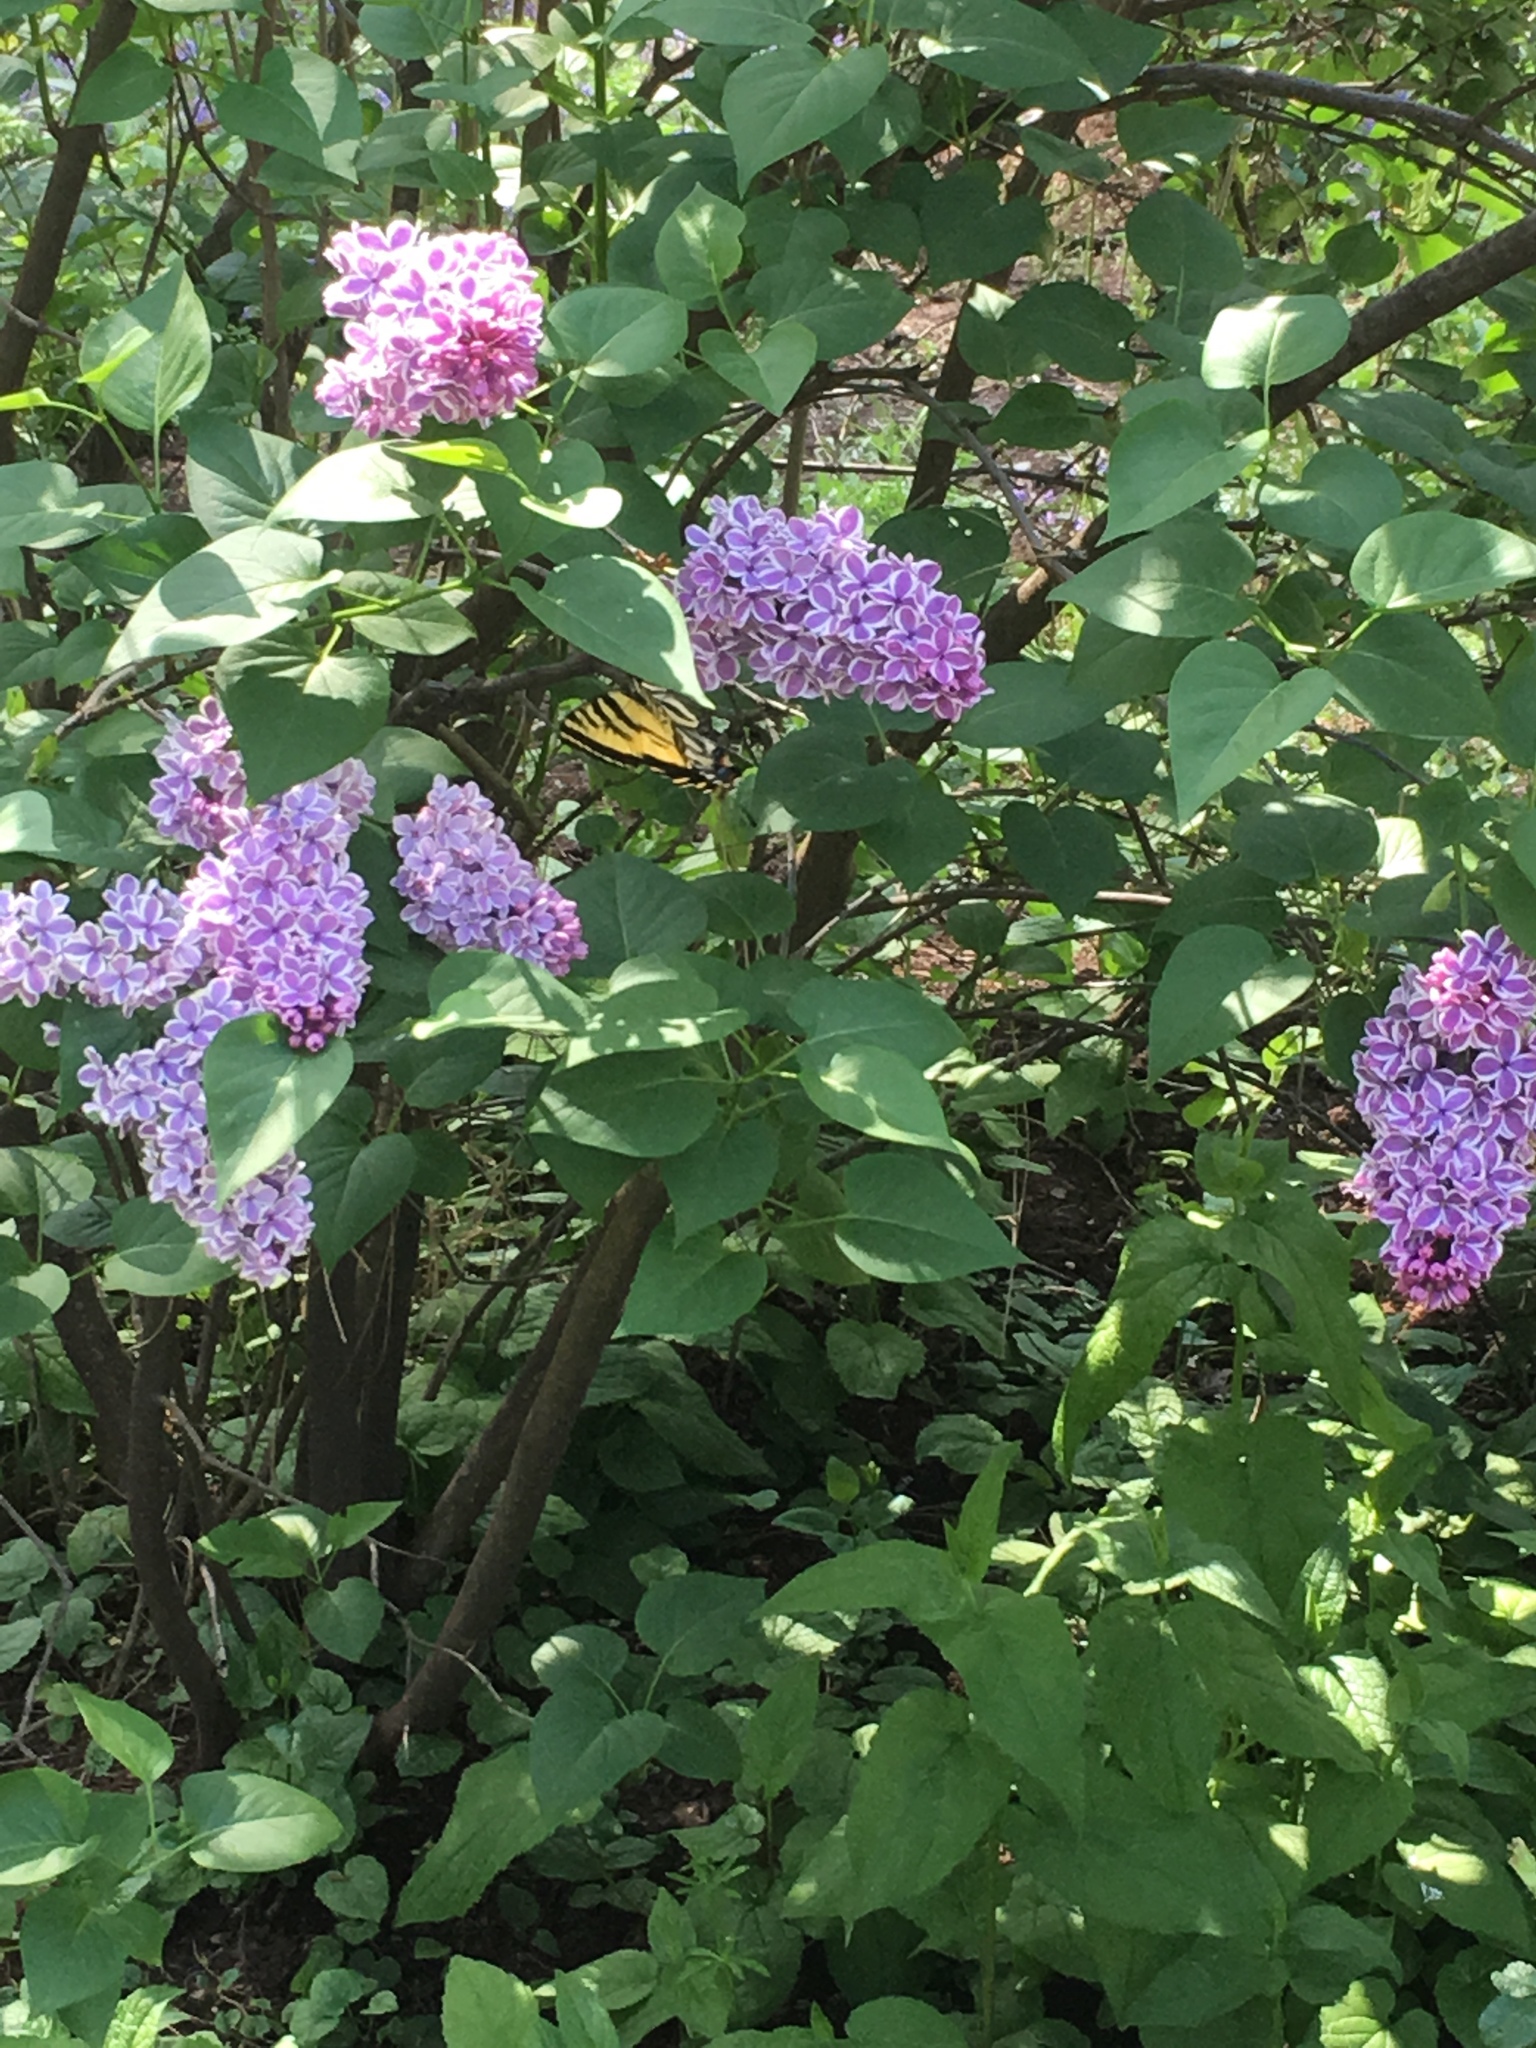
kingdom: Animalia
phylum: Arthropoda
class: Insecta
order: Lepidoptera
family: Papilionidae
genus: Papilio
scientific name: Papilio rutulus
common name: Western tiger swallowtail
